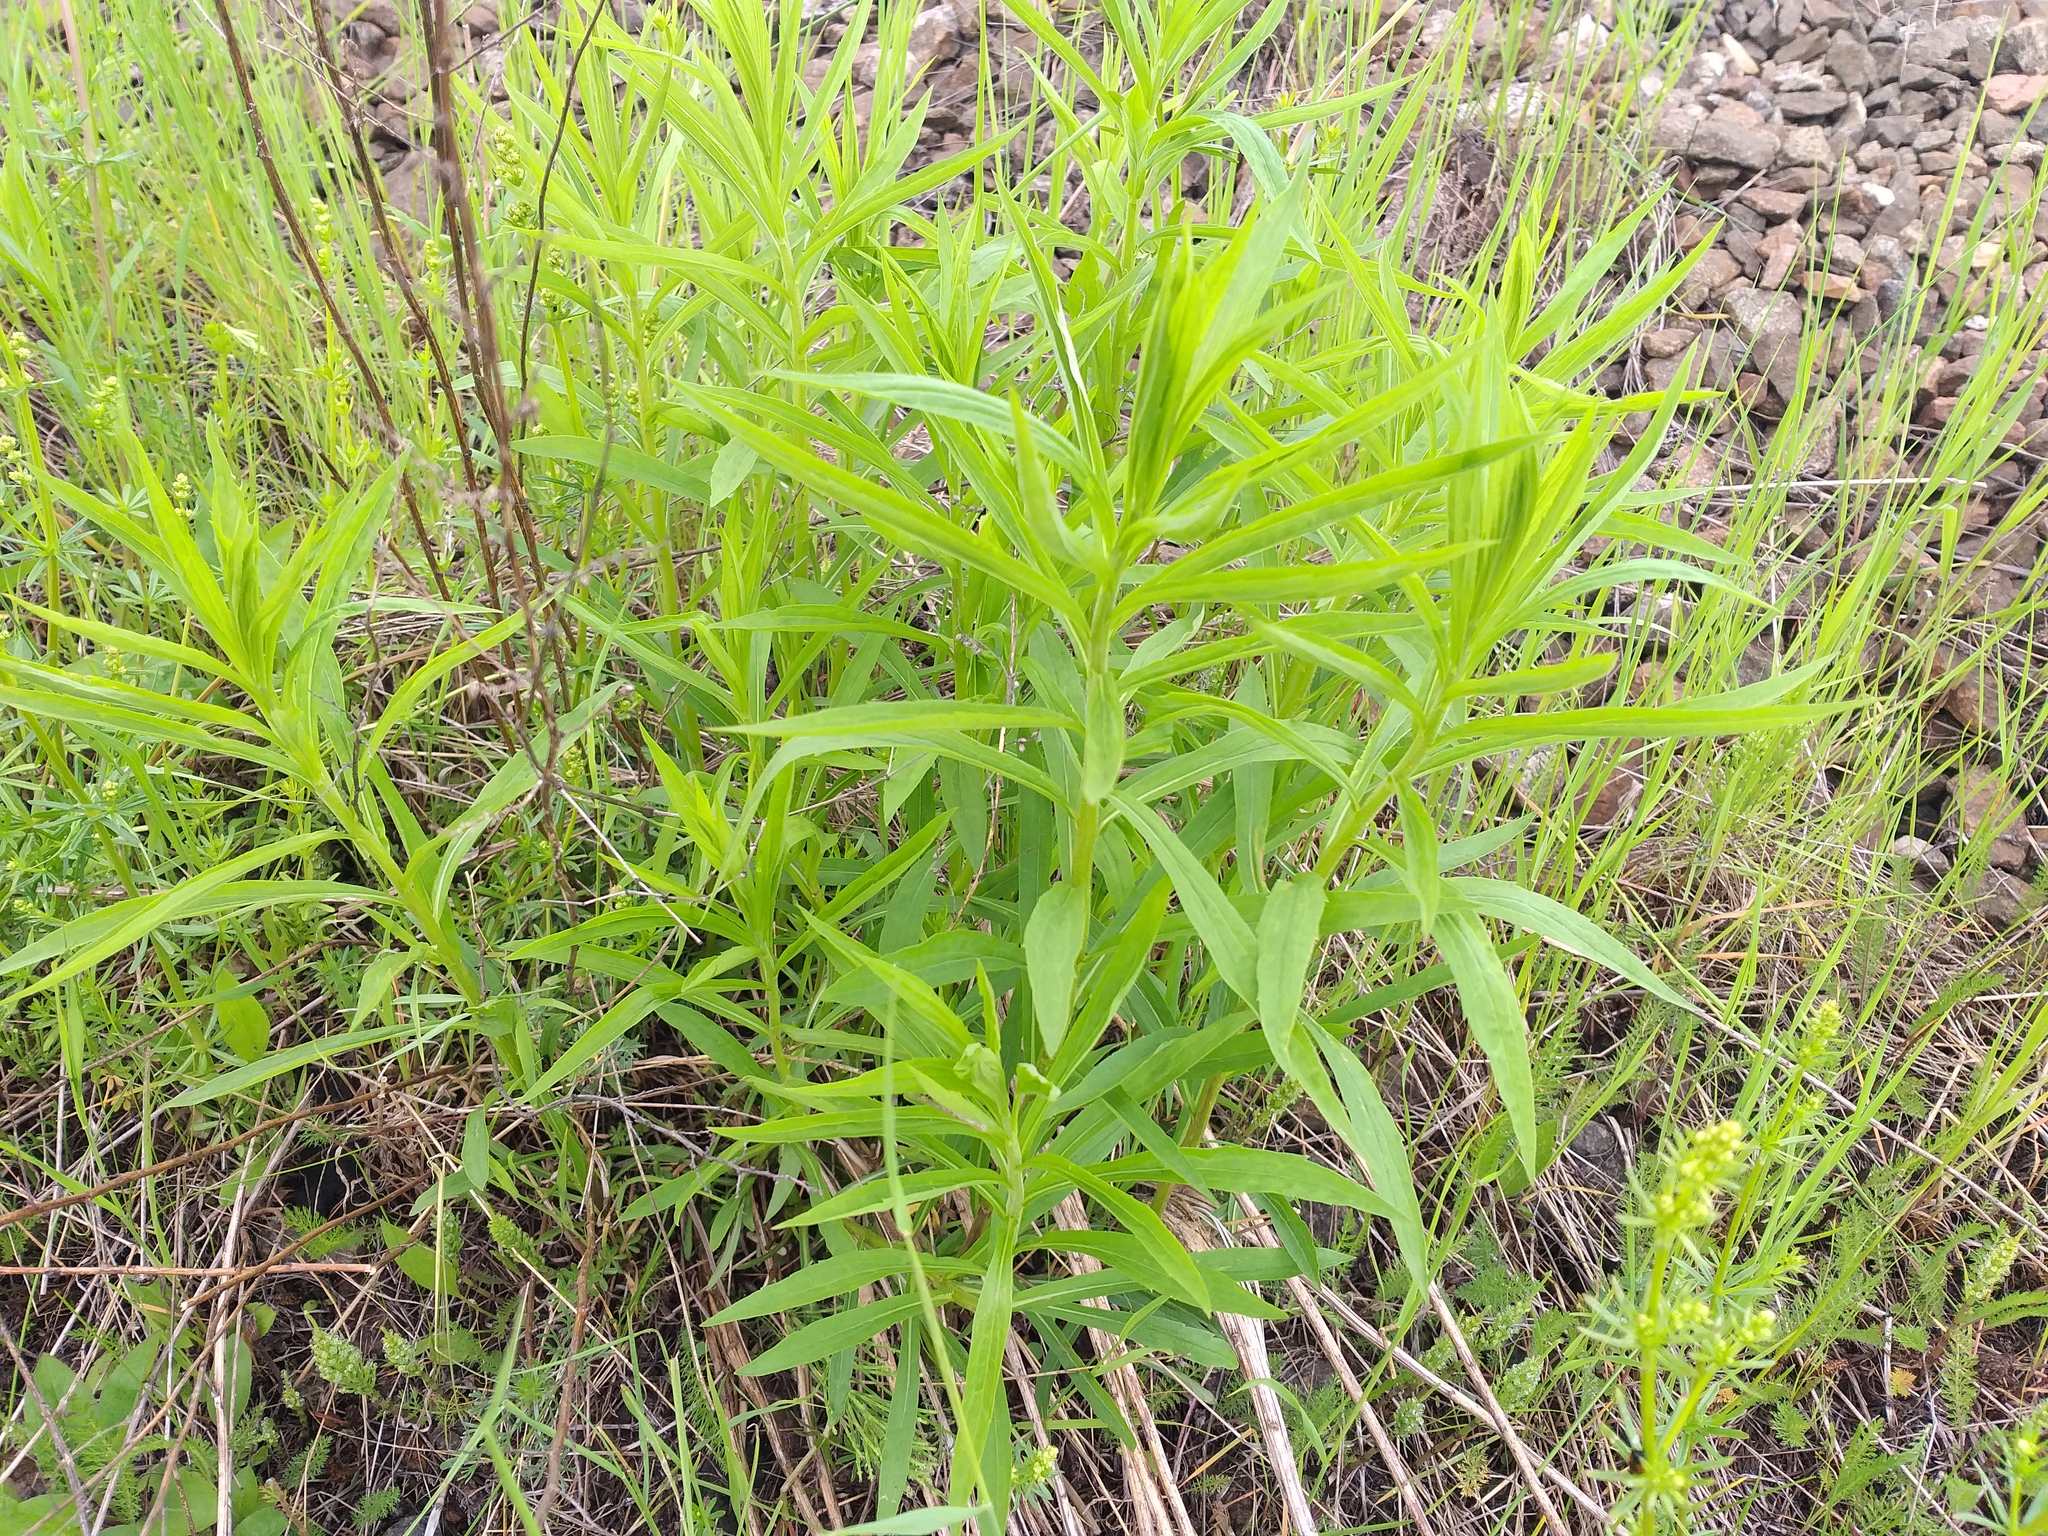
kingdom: Plantae
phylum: Tracheophyta
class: Magnoliopsida
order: Asterales
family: Asteraceae
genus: Solidago
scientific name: Solidago canadensis
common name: Canada goldenrod
